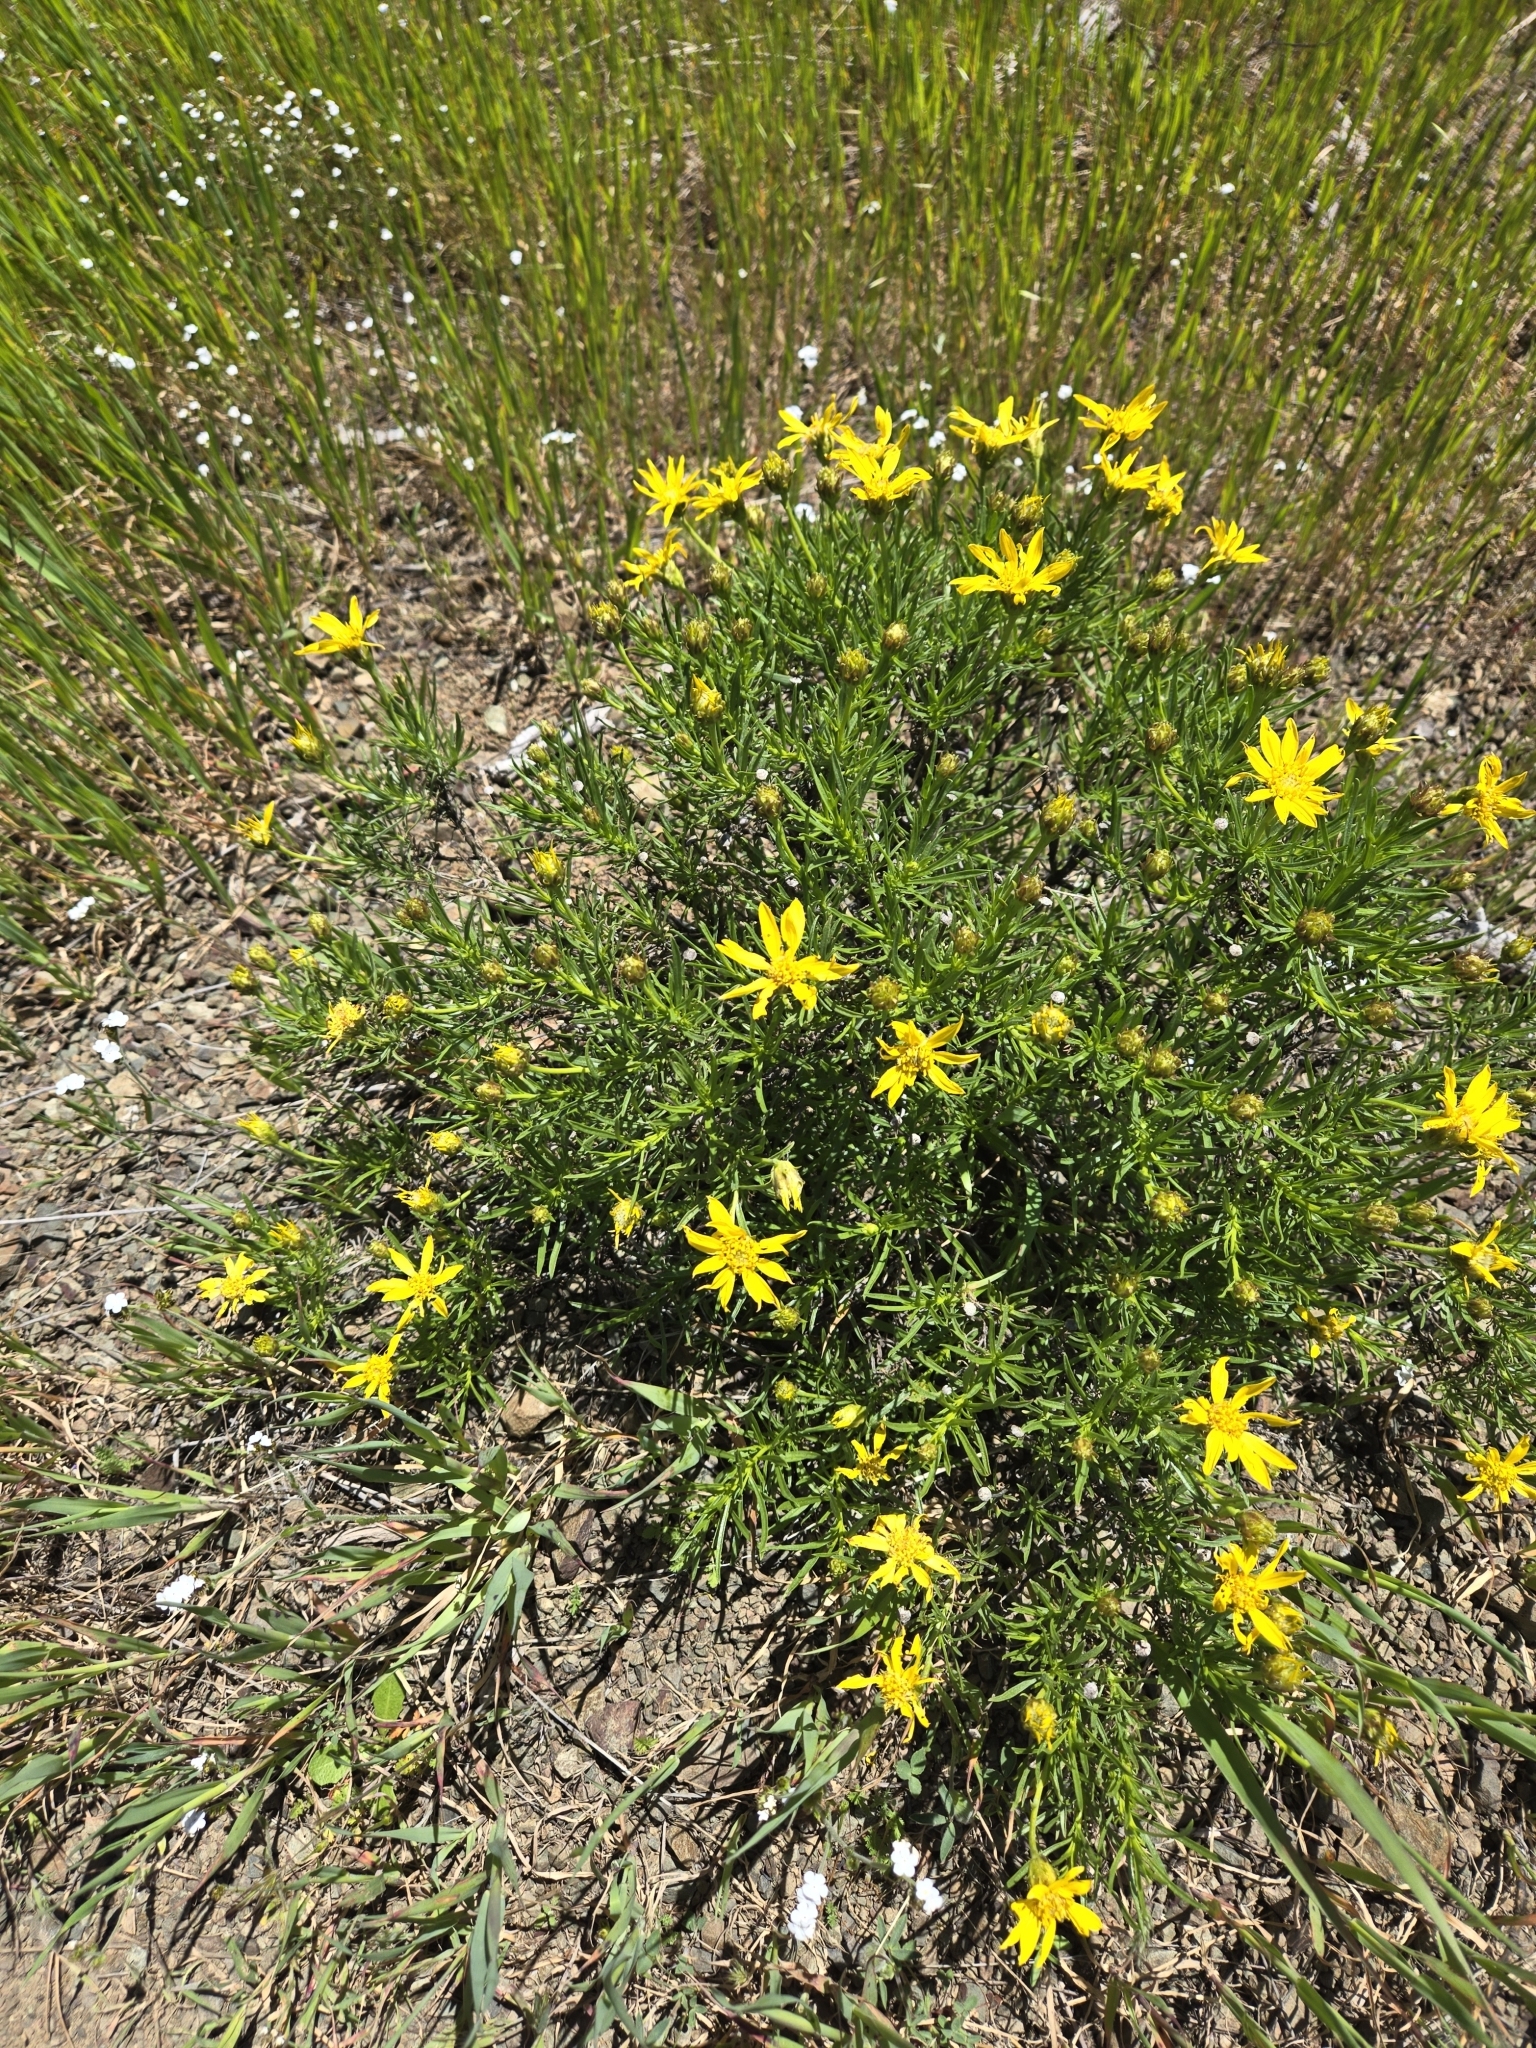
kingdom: Plantae
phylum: Tracheophyta
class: Magnoliopsida
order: Asterales
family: Asteraceae
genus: Ericameria
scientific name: Ericameria linearifolia
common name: Interior goldenbush
